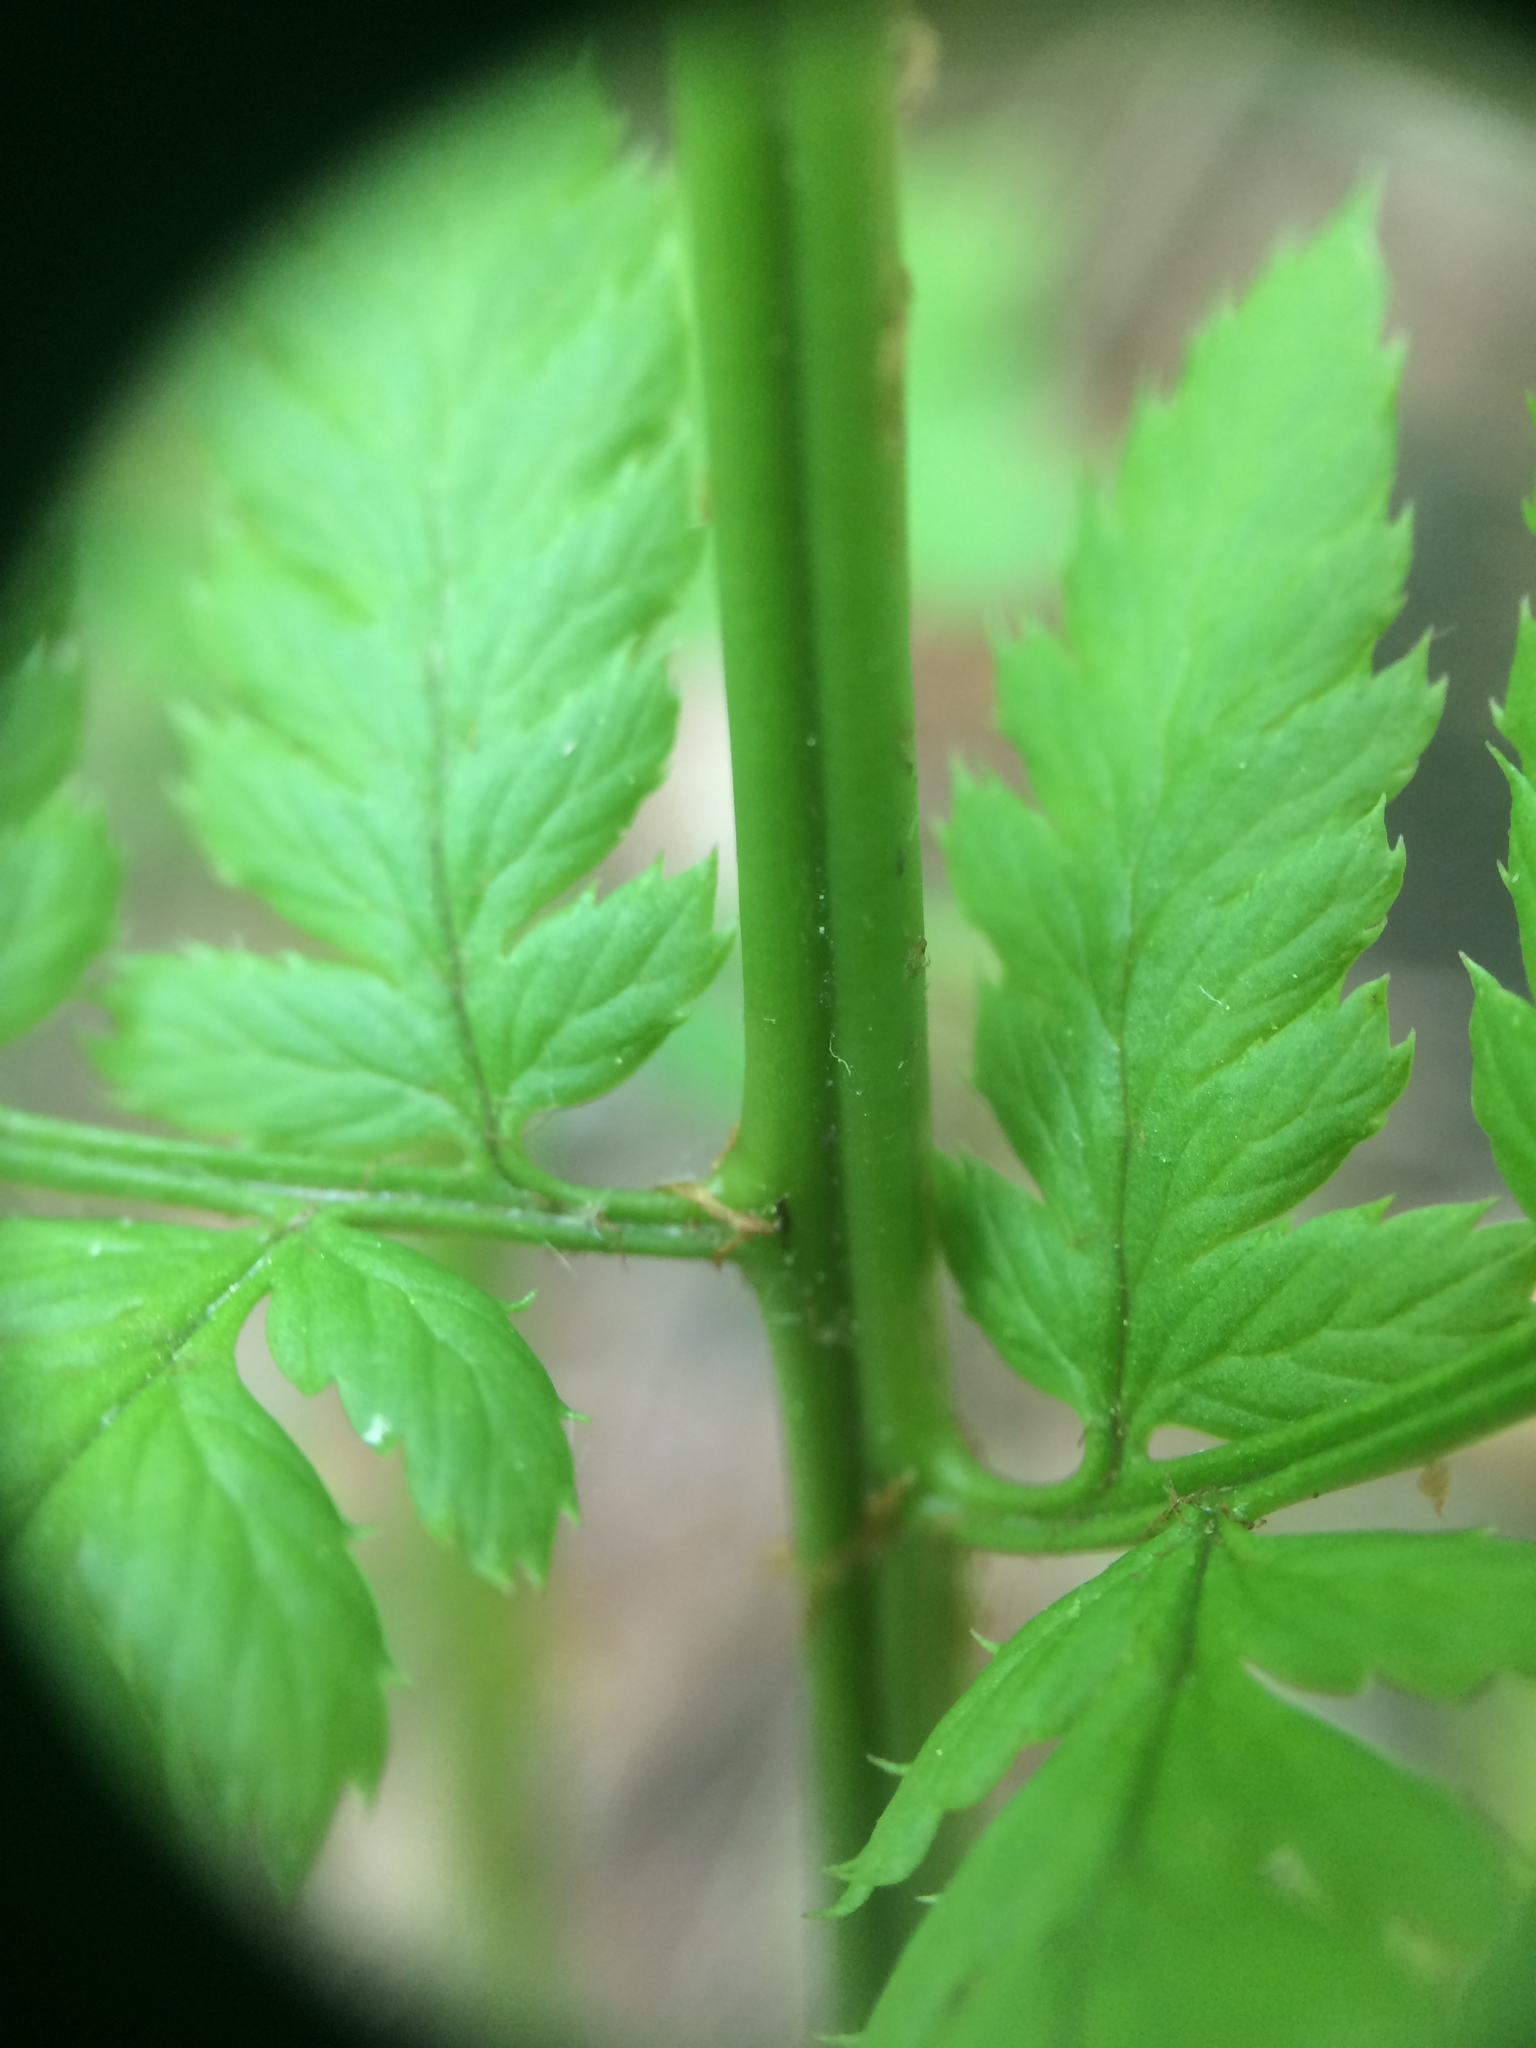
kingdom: Plantae
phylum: Tracheophyta
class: Polypodiopsida
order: Polypodiales
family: Dryopteridaceae
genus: Dryopteris
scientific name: Dryopteris carthusiana
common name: Narrow buckler-fern
